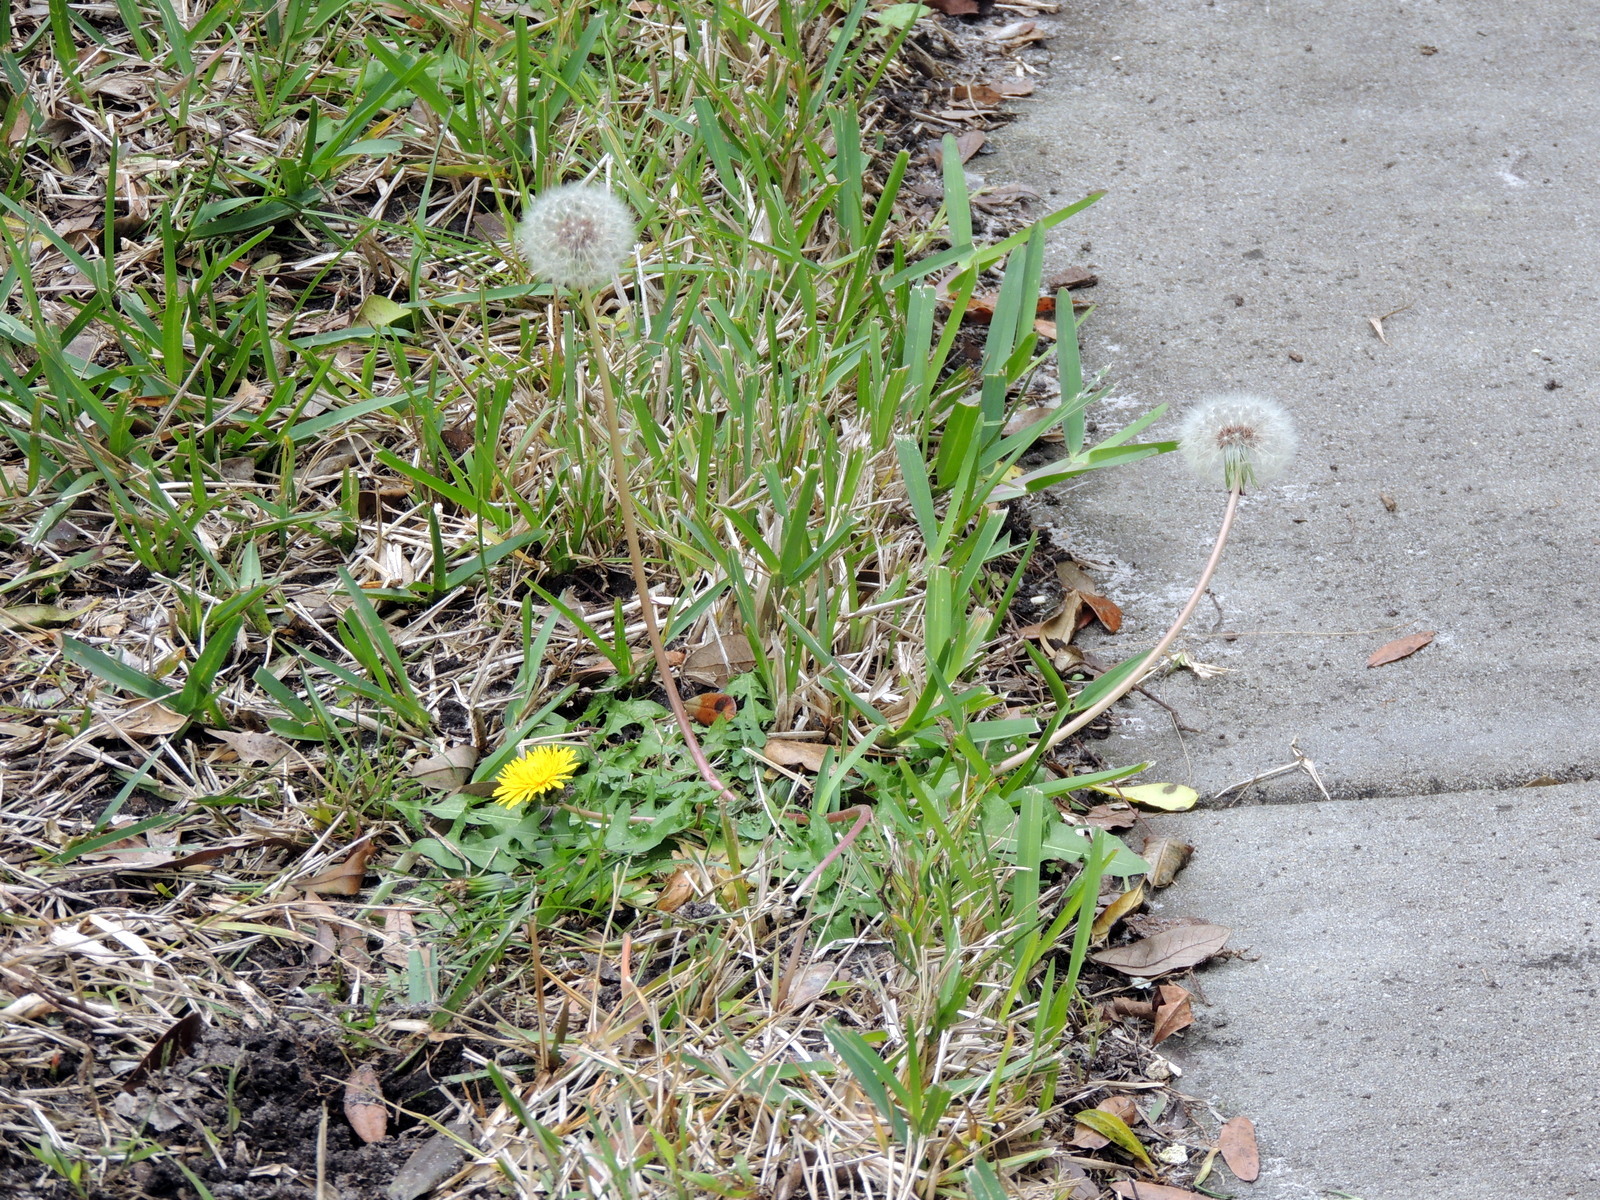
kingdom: Plantae
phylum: Tracheophyta
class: Magnoliopsida
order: Asterales
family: Asteraceae
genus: Taraxacum
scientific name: Taraxacum officinale
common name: Common dandelion
